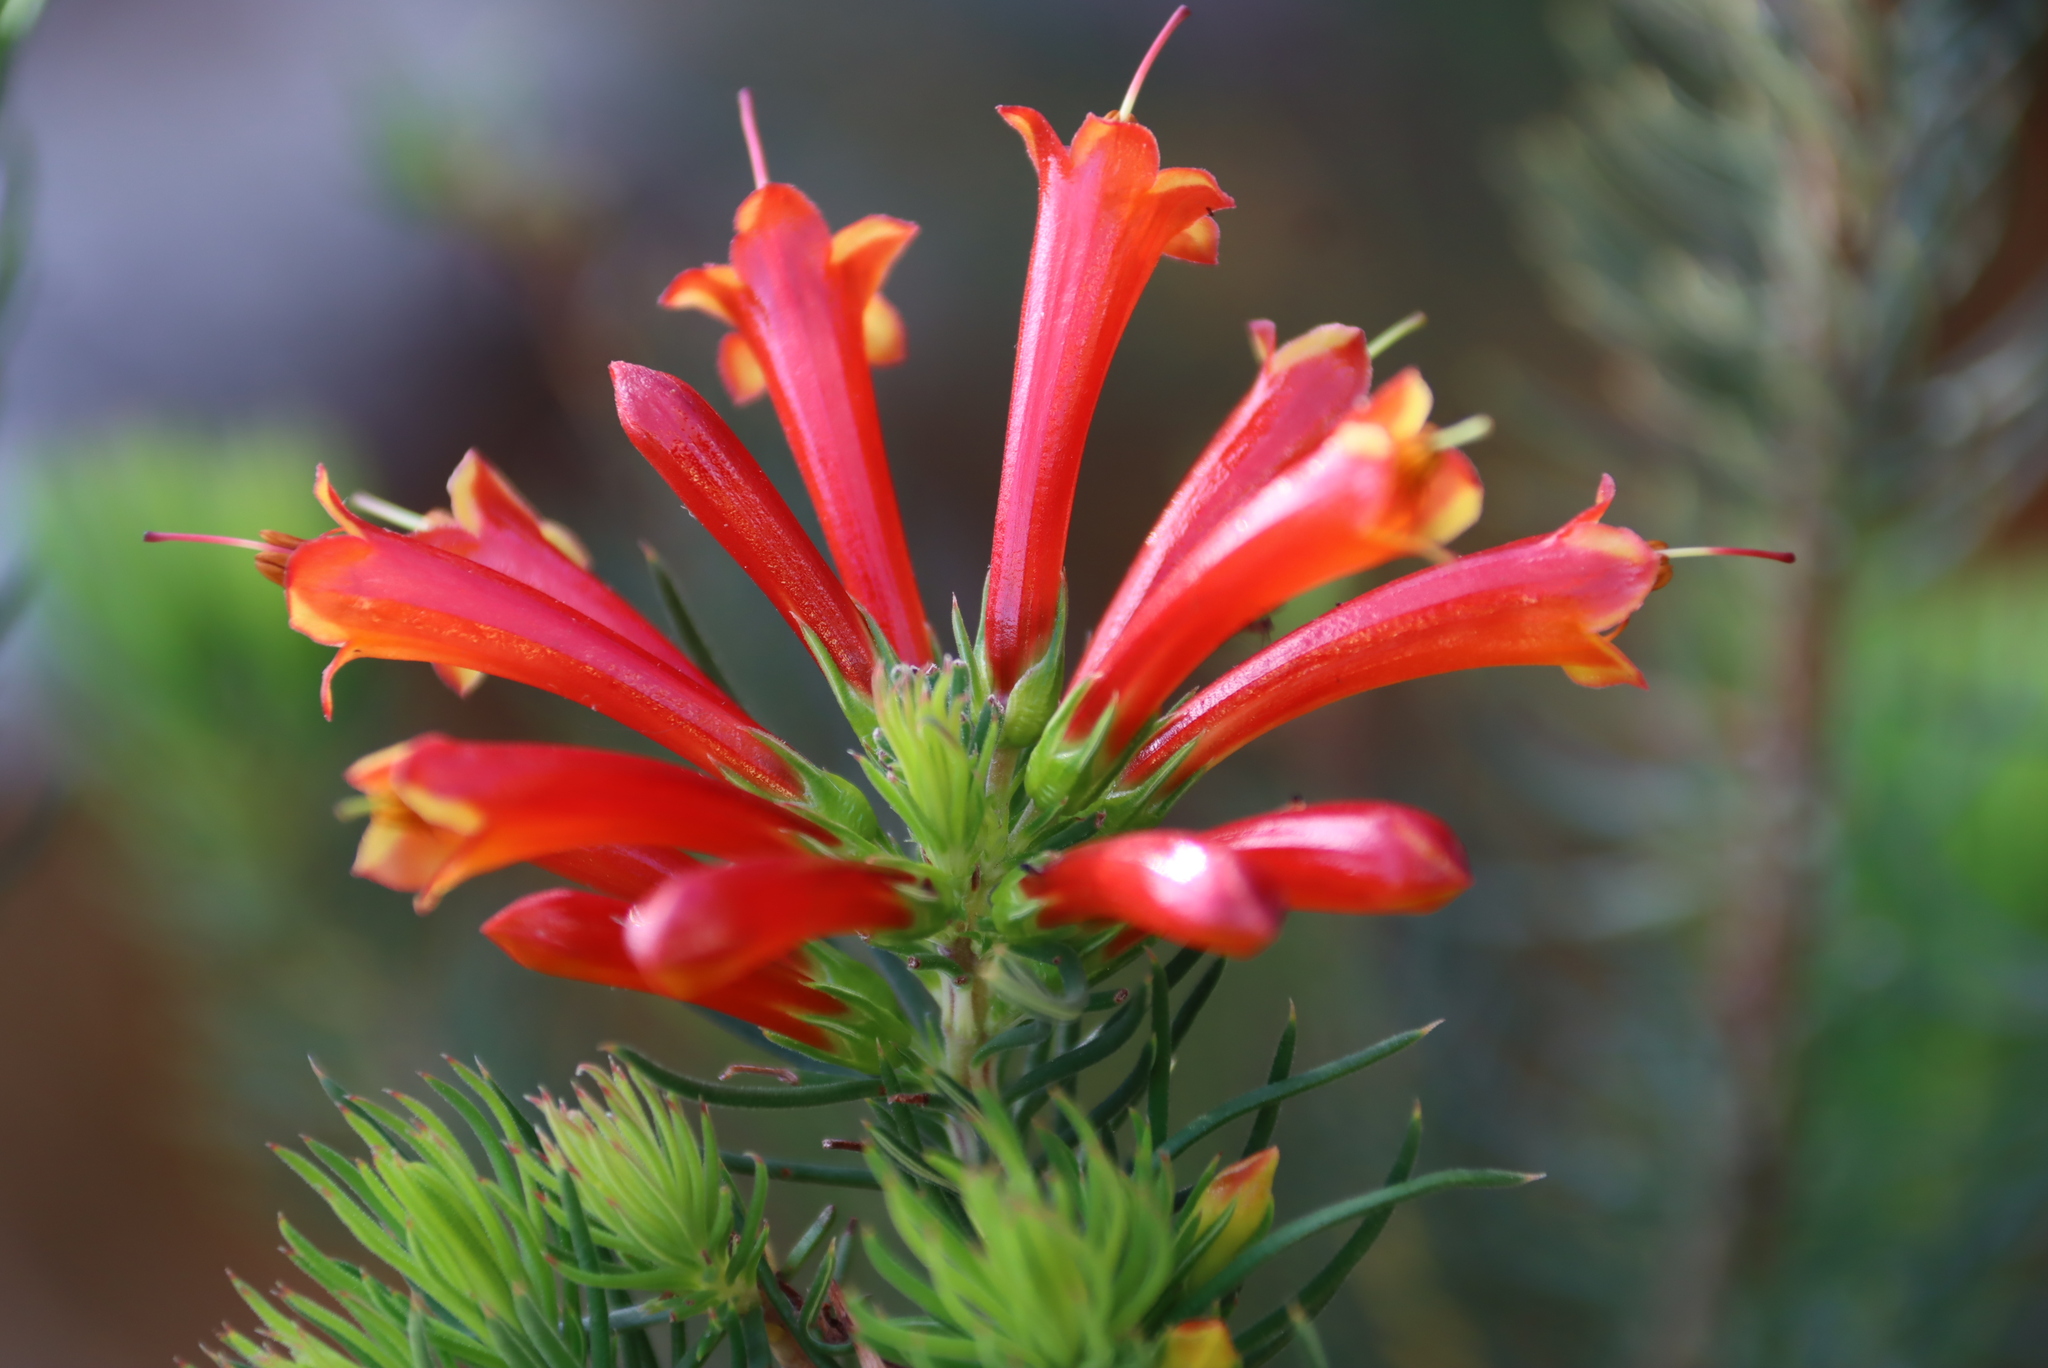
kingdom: Plantae
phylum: Tracheophyta
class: Magnoliopsida
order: Ericales
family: Ericaceae
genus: Erica
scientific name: Erica grandiflora
